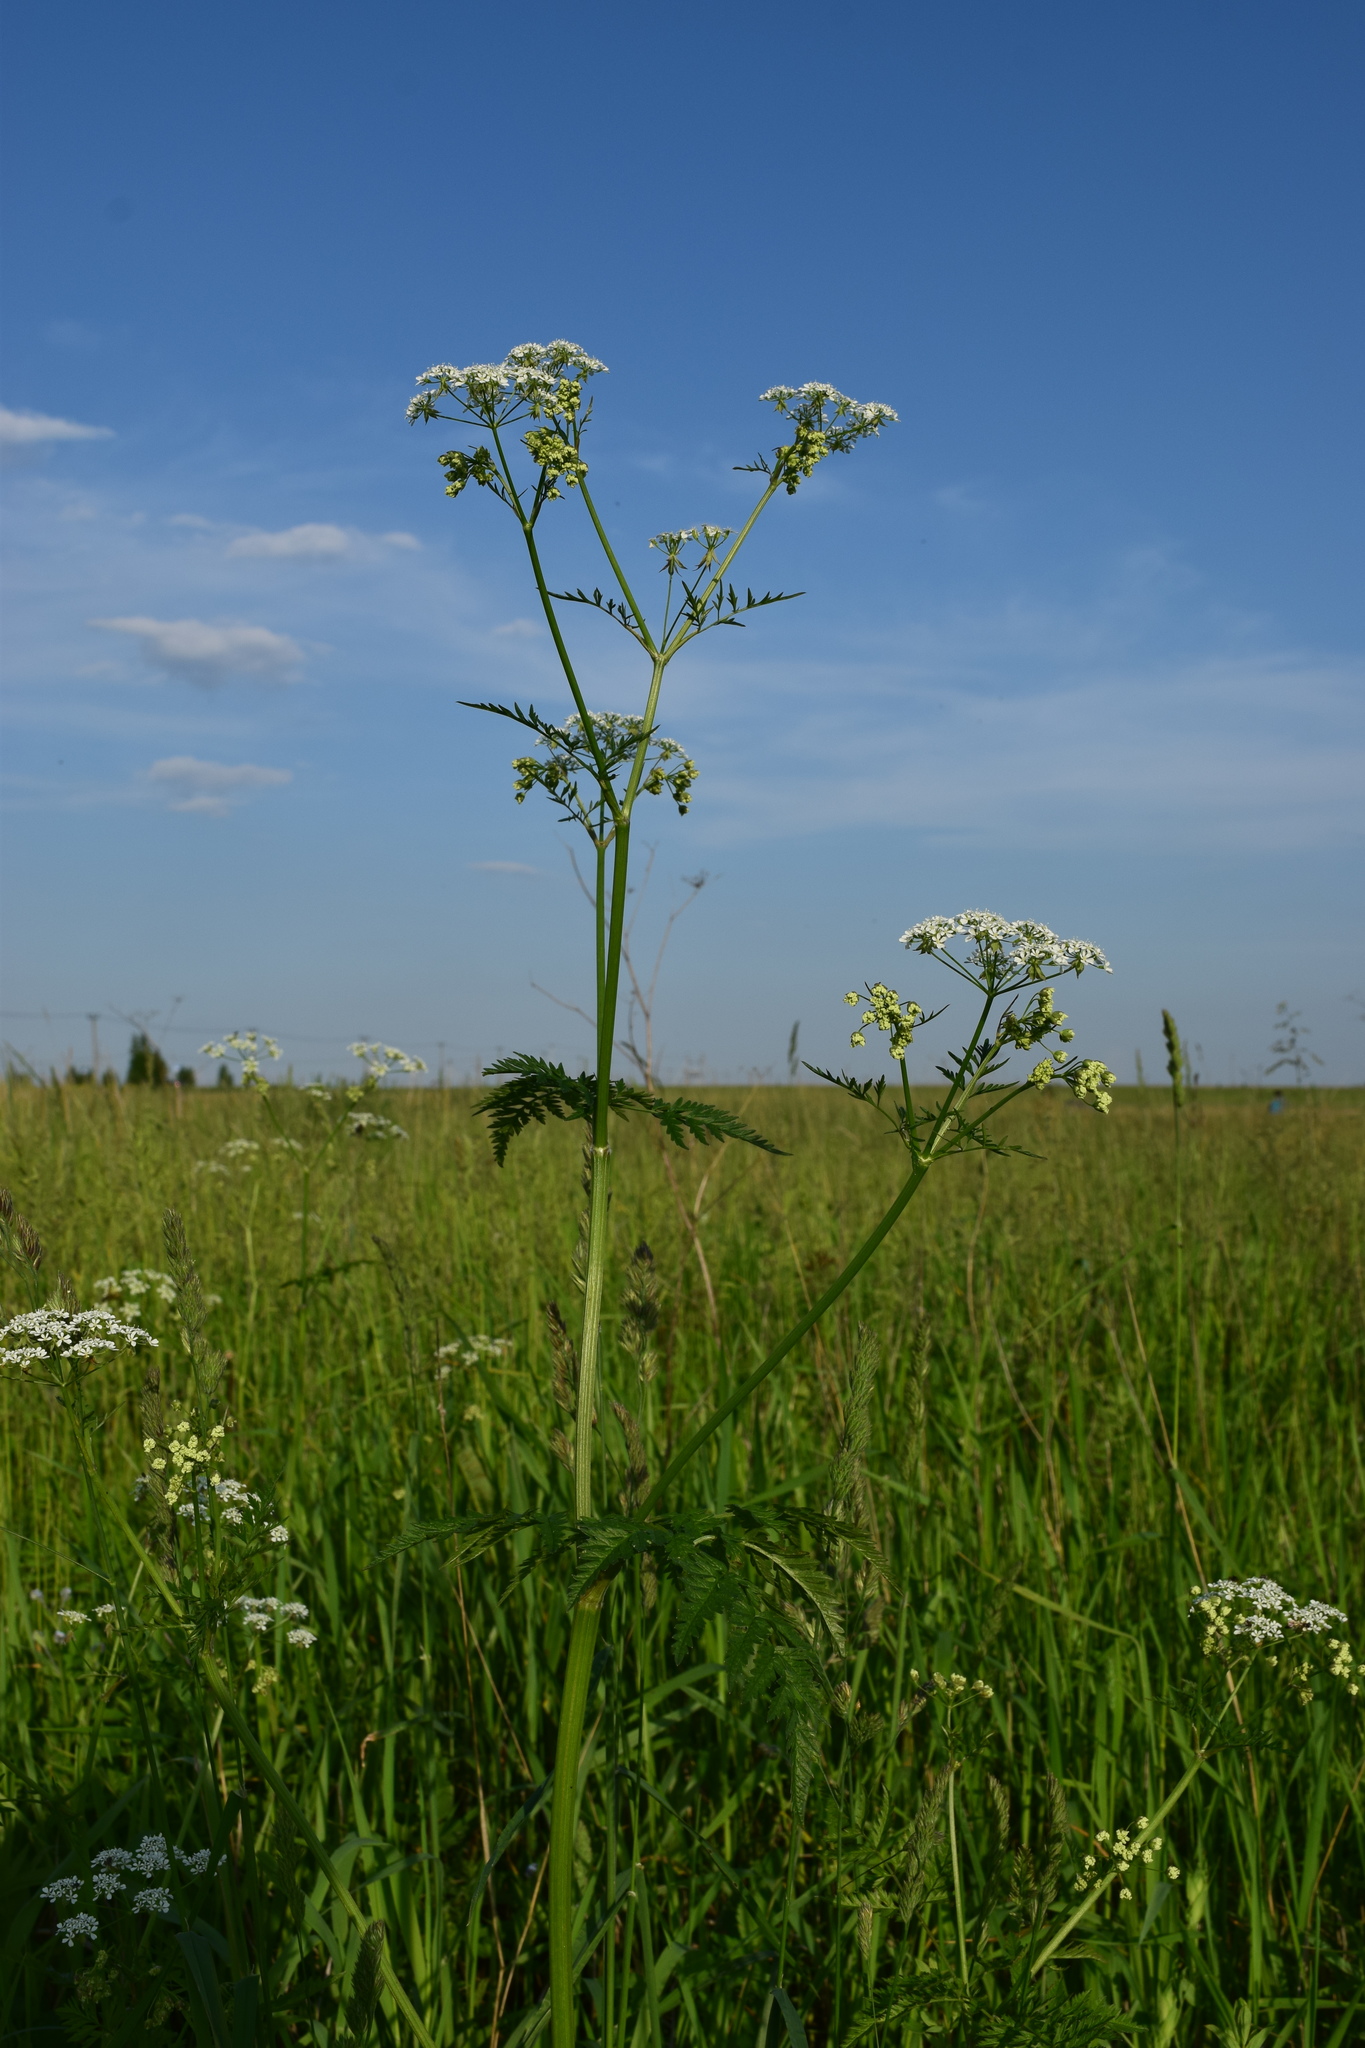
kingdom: Plantae
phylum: Tracheophyta
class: Magnoliopsida
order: Apiales
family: Apiaceae
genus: Anthriscus
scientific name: Anthriscus sylvestris
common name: Cow parsley
